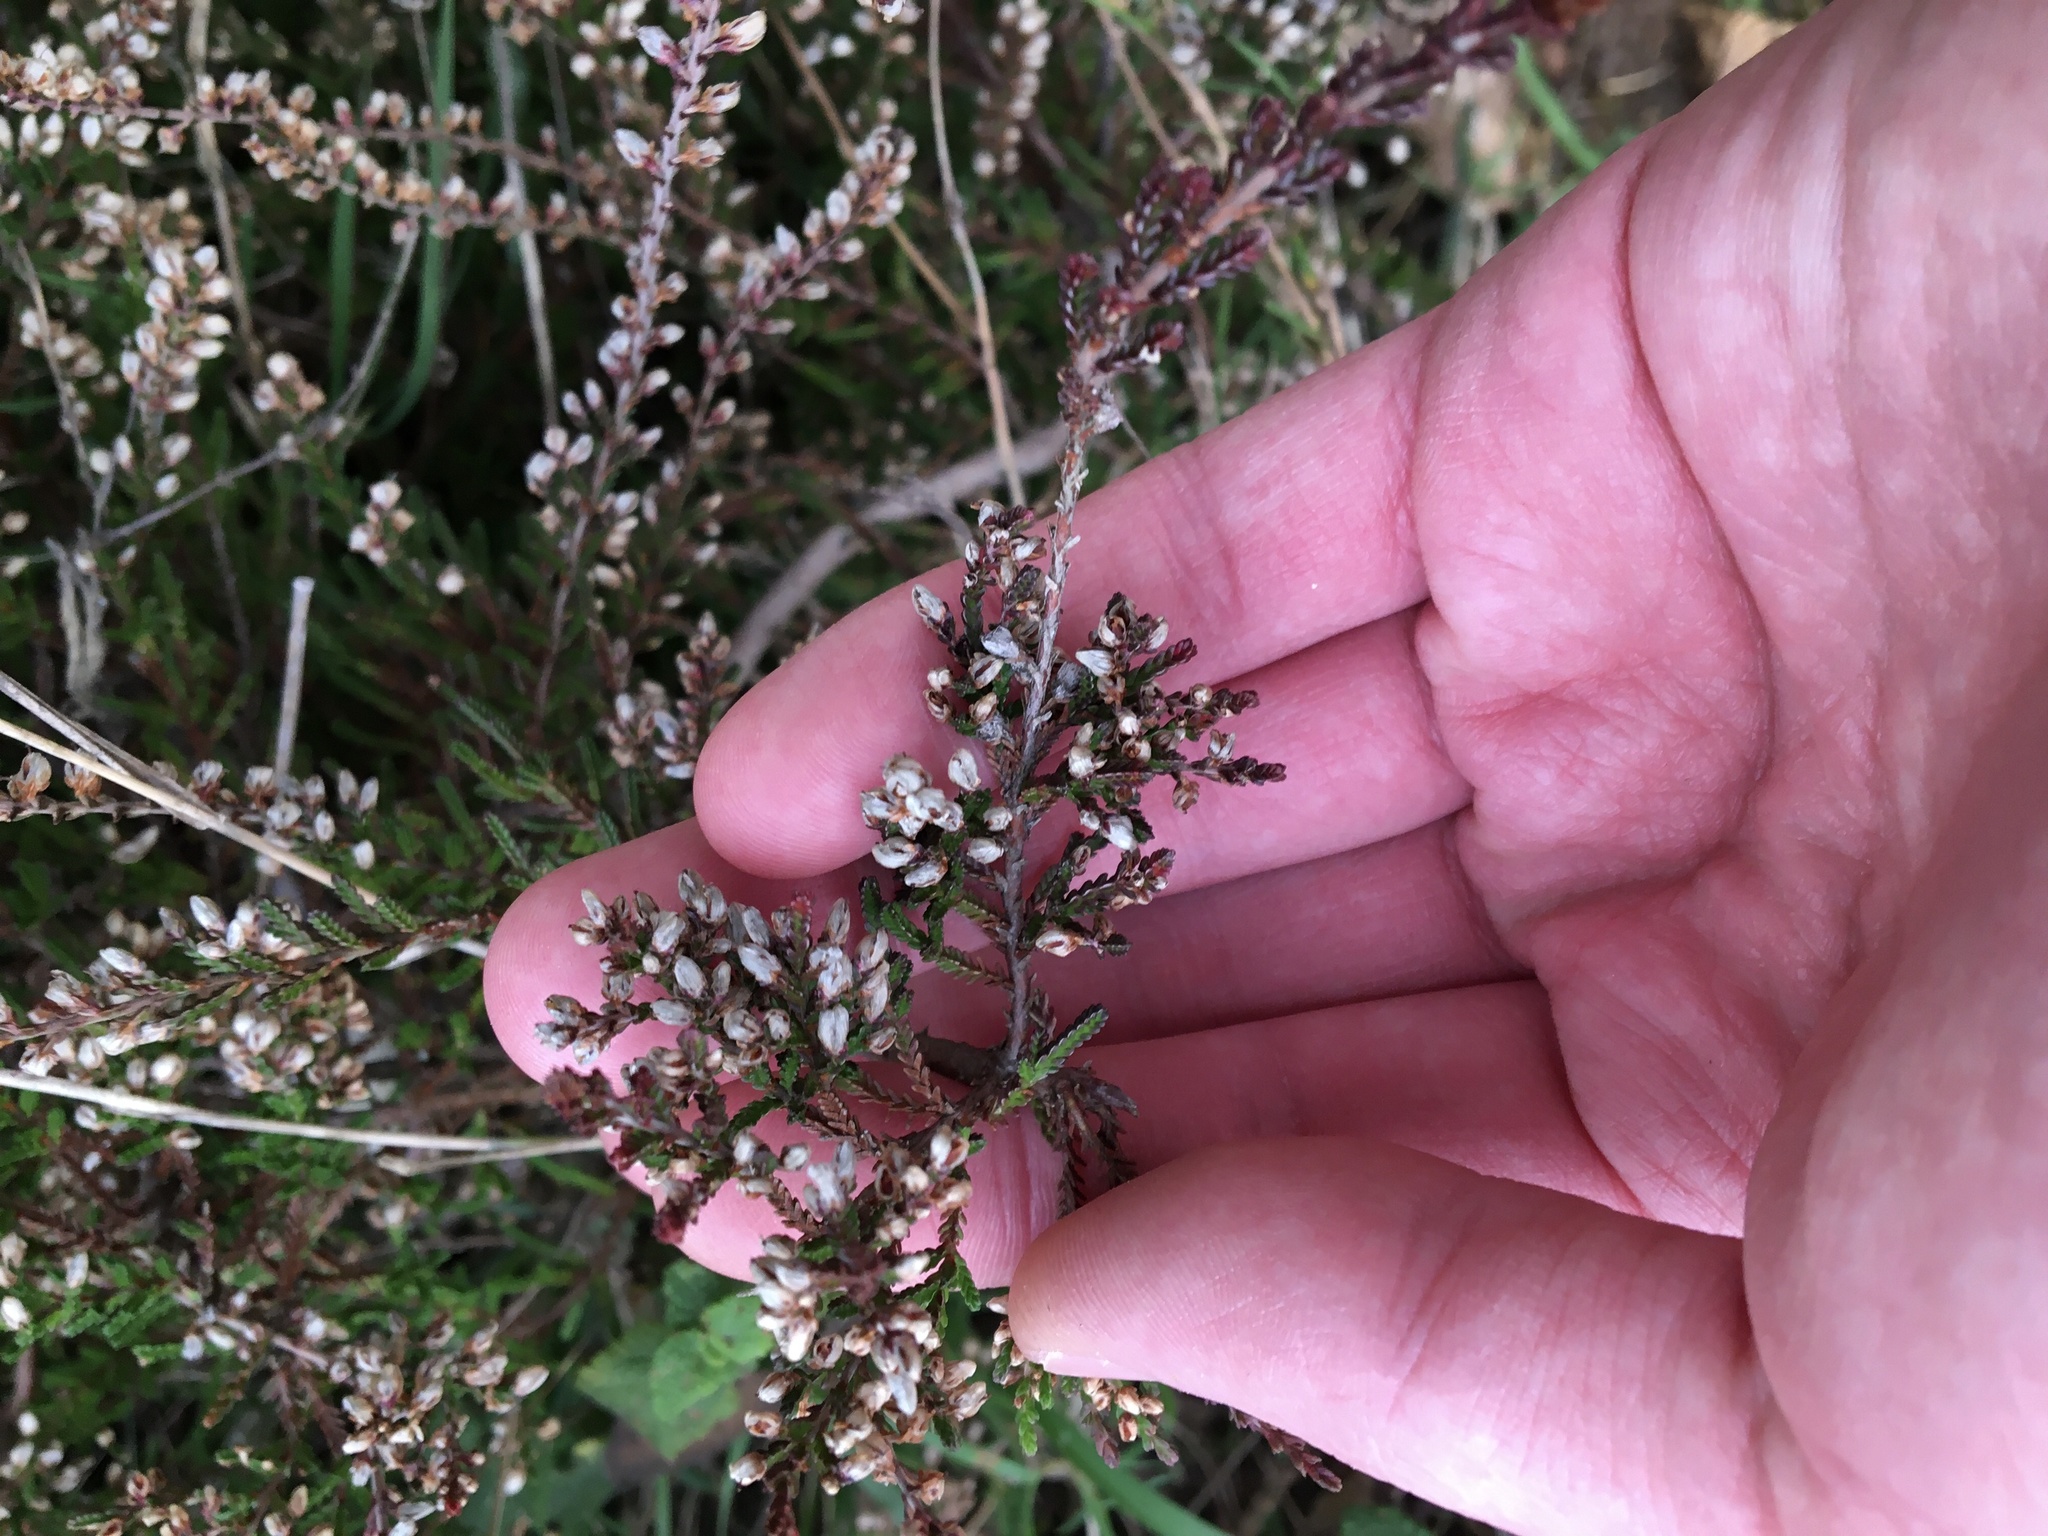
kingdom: Plantae
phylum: Tracheophyta
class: Magnoliopsida
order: Ericales
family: Ericaceae
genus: Calluna
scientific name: Calluna vulgaris
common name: Heather
